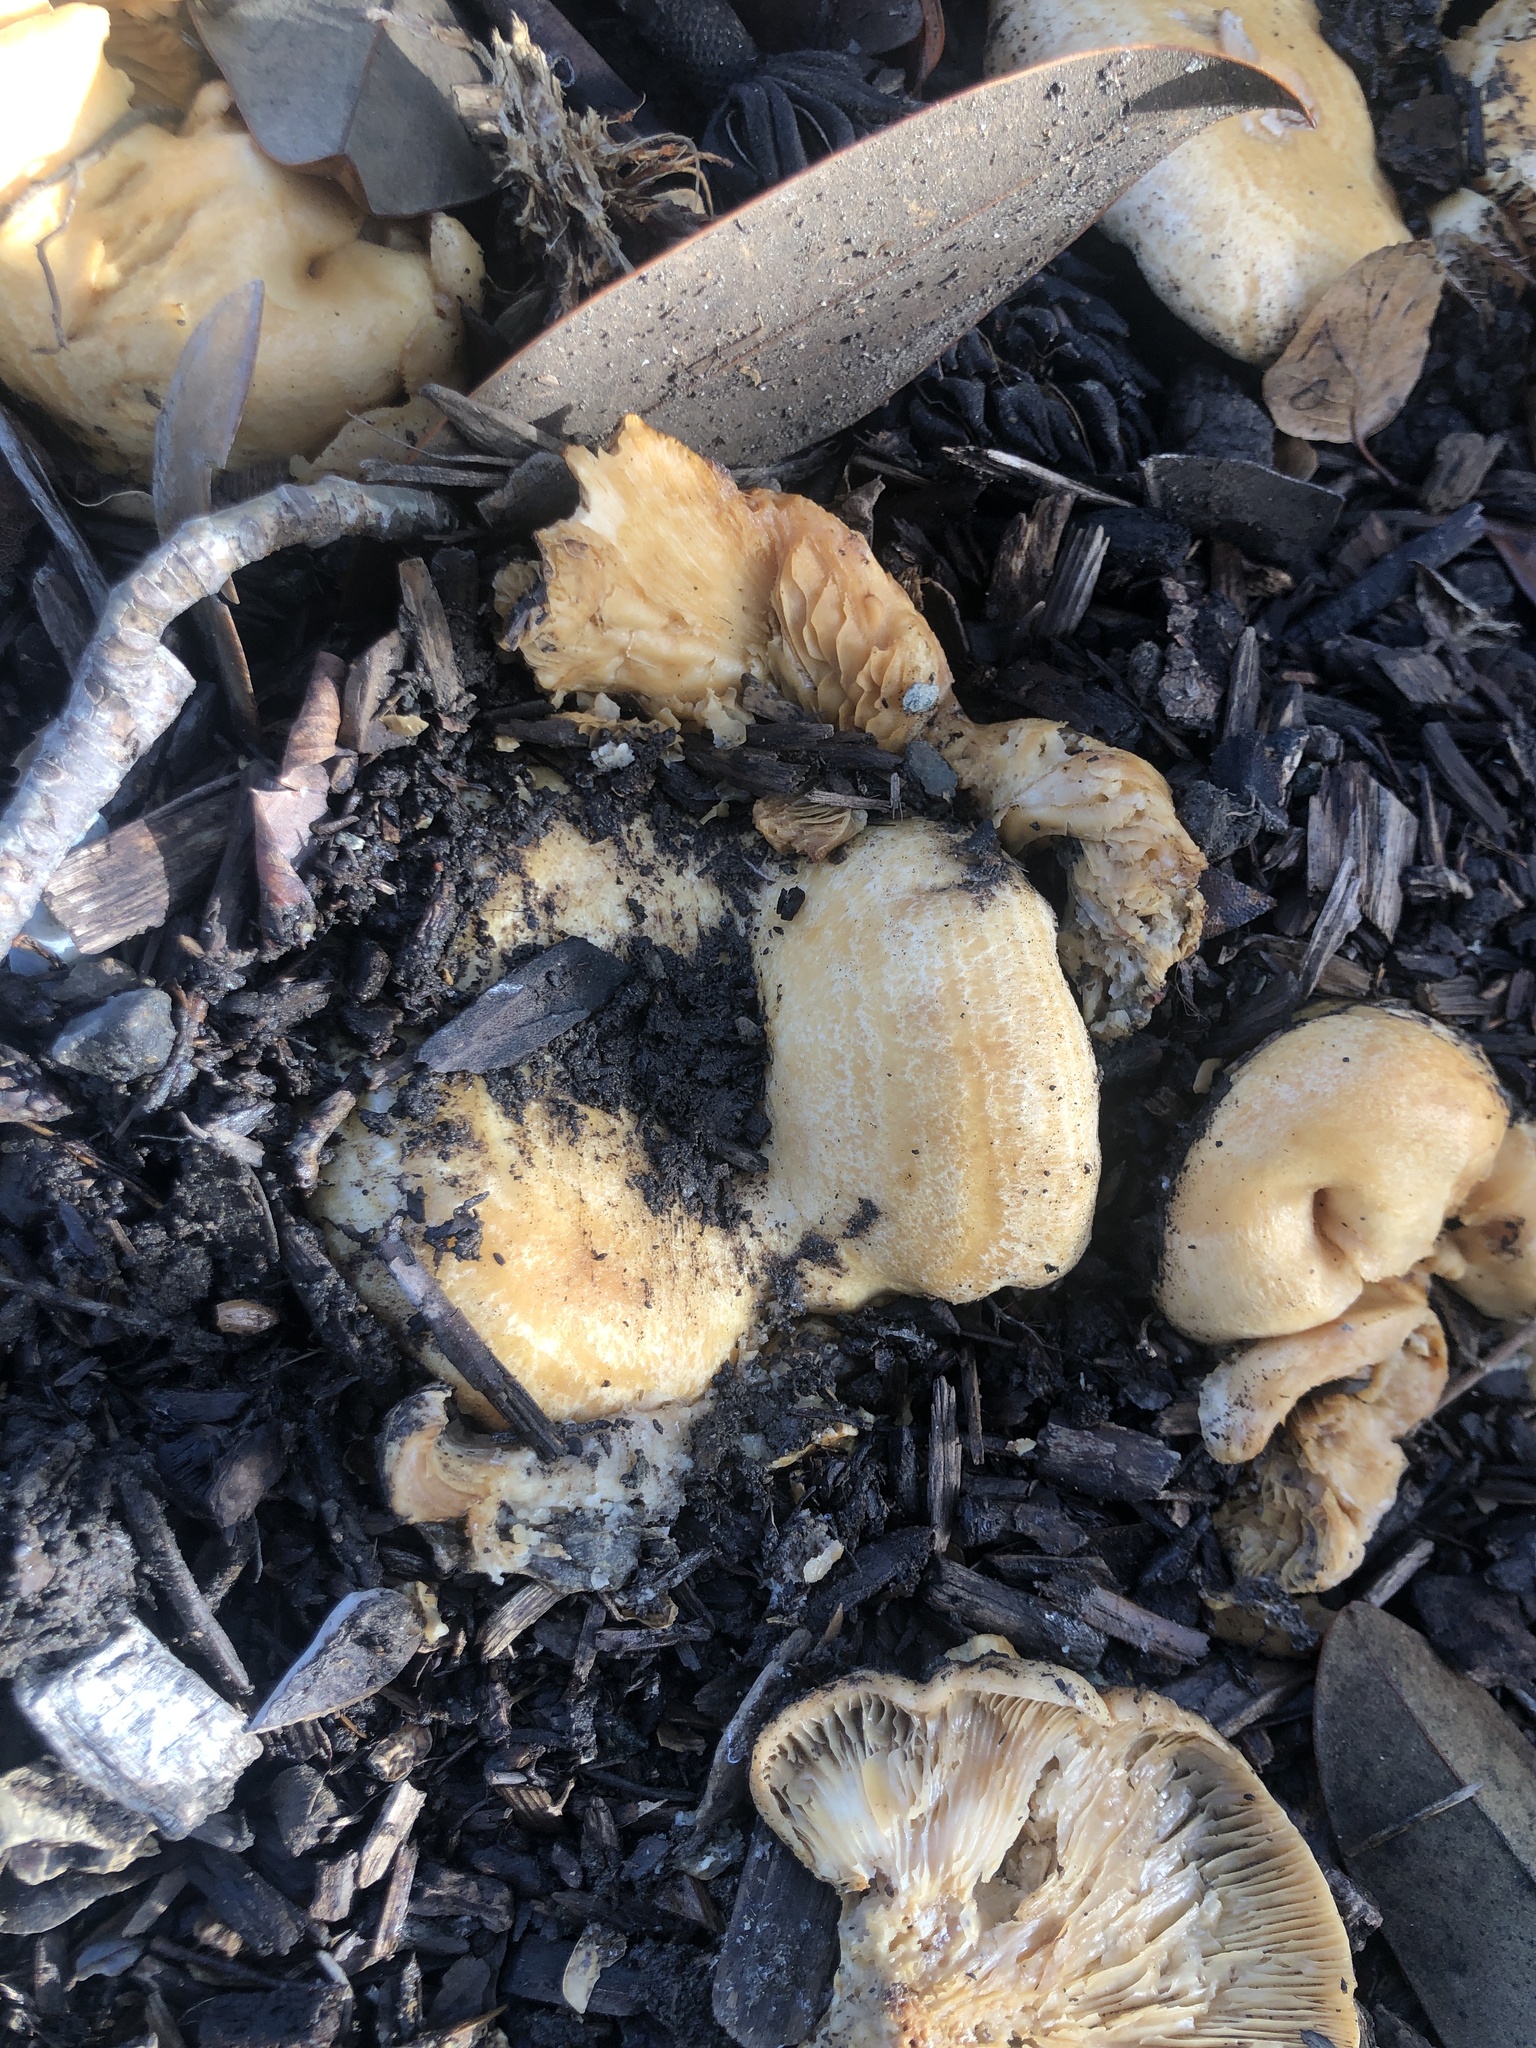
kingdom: Fungi
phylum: Basidiomycota
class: Agaricomycetes
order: Russulales
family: Russulaceae
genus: Lactarius
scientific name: Lactarius alnicola
